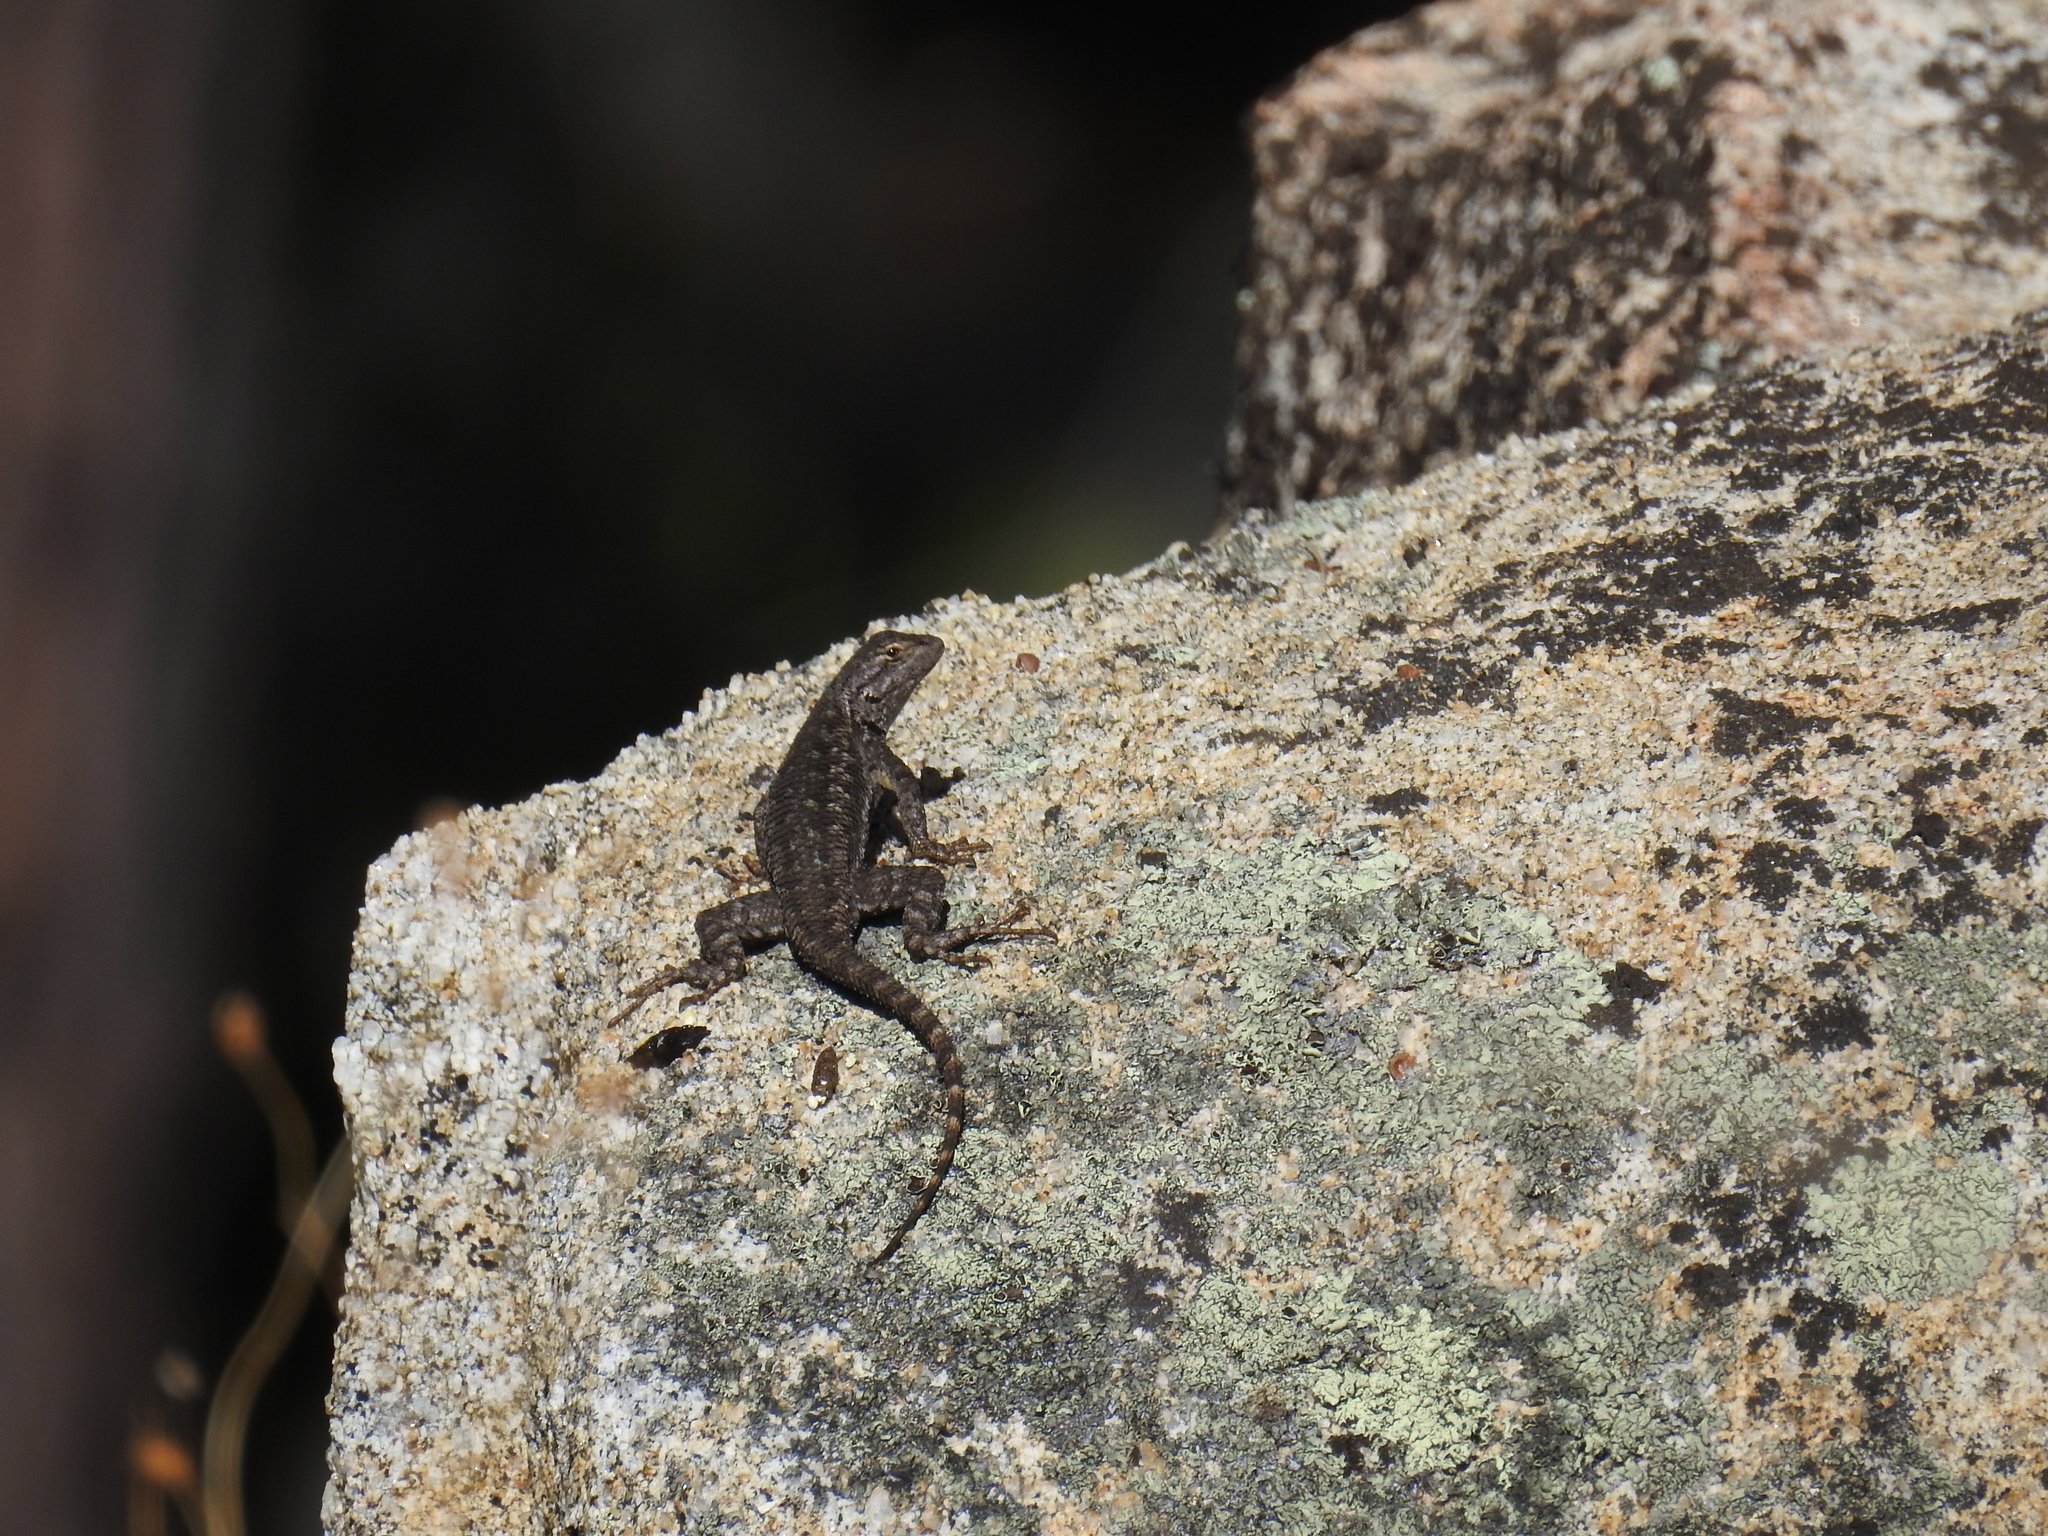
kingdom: Animalia
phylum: Chordata
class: Squamata
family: Phrynosomatidae
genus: Sceloporus
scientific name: Sceloporus occidentalis
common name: Western fence lizard
